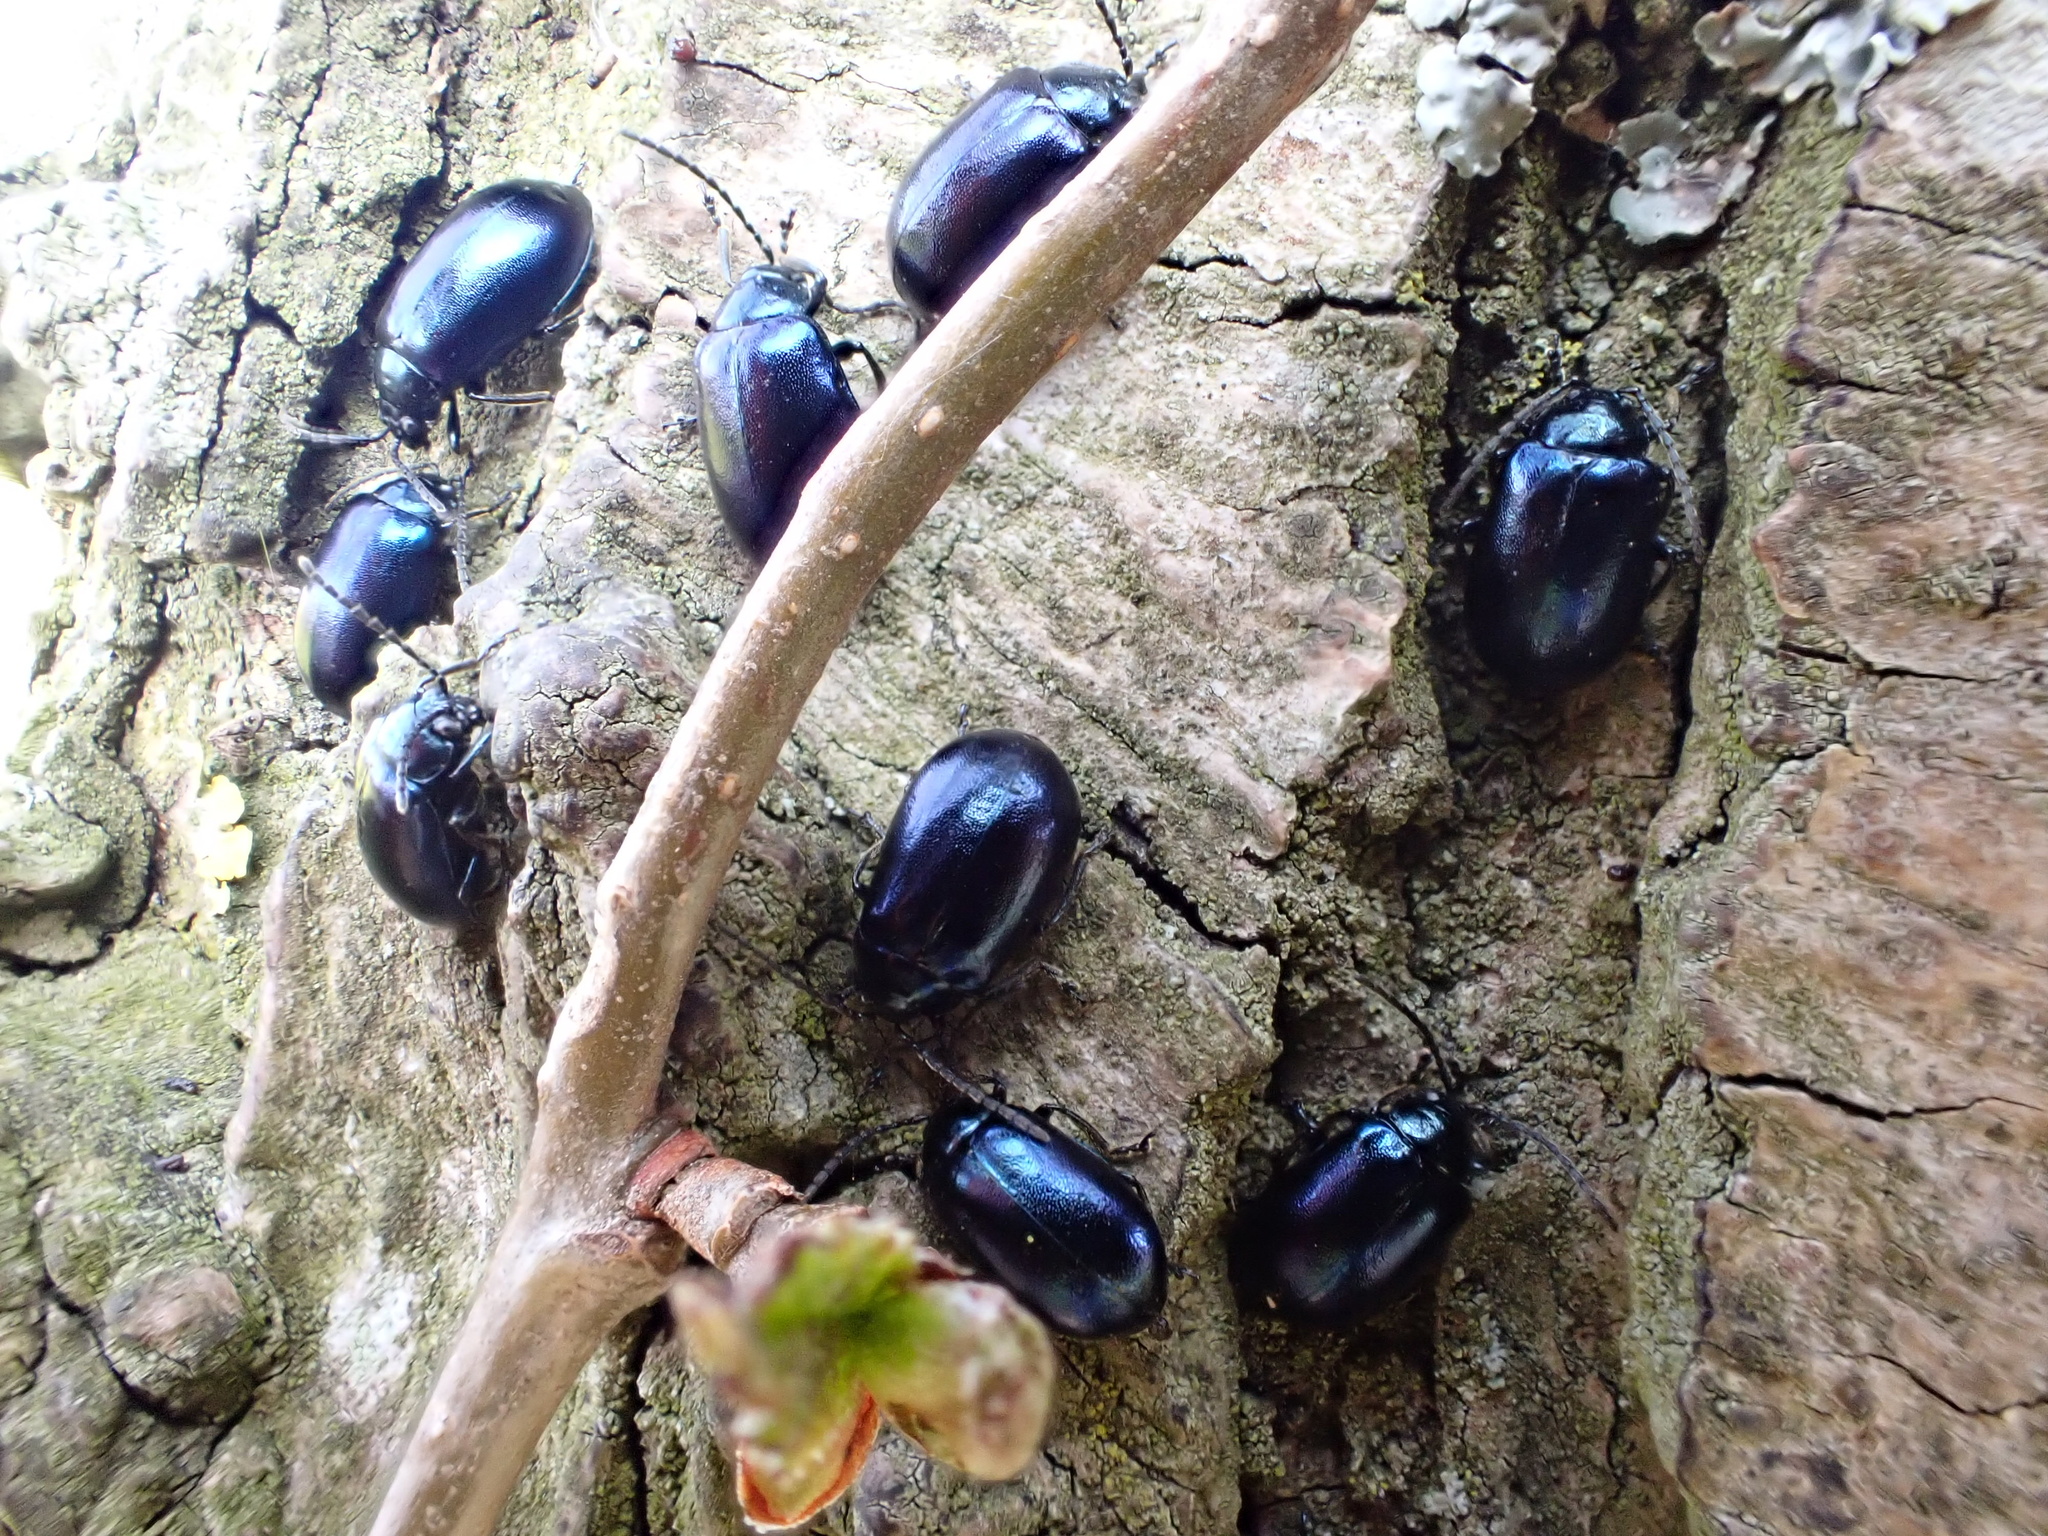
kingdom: Animalia
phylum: Arthropoda
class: Insecta
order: Coleoptera
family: Chrysomelidae
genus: Agelastica
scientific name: Agelastica alni
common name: Alder leaf beetle
